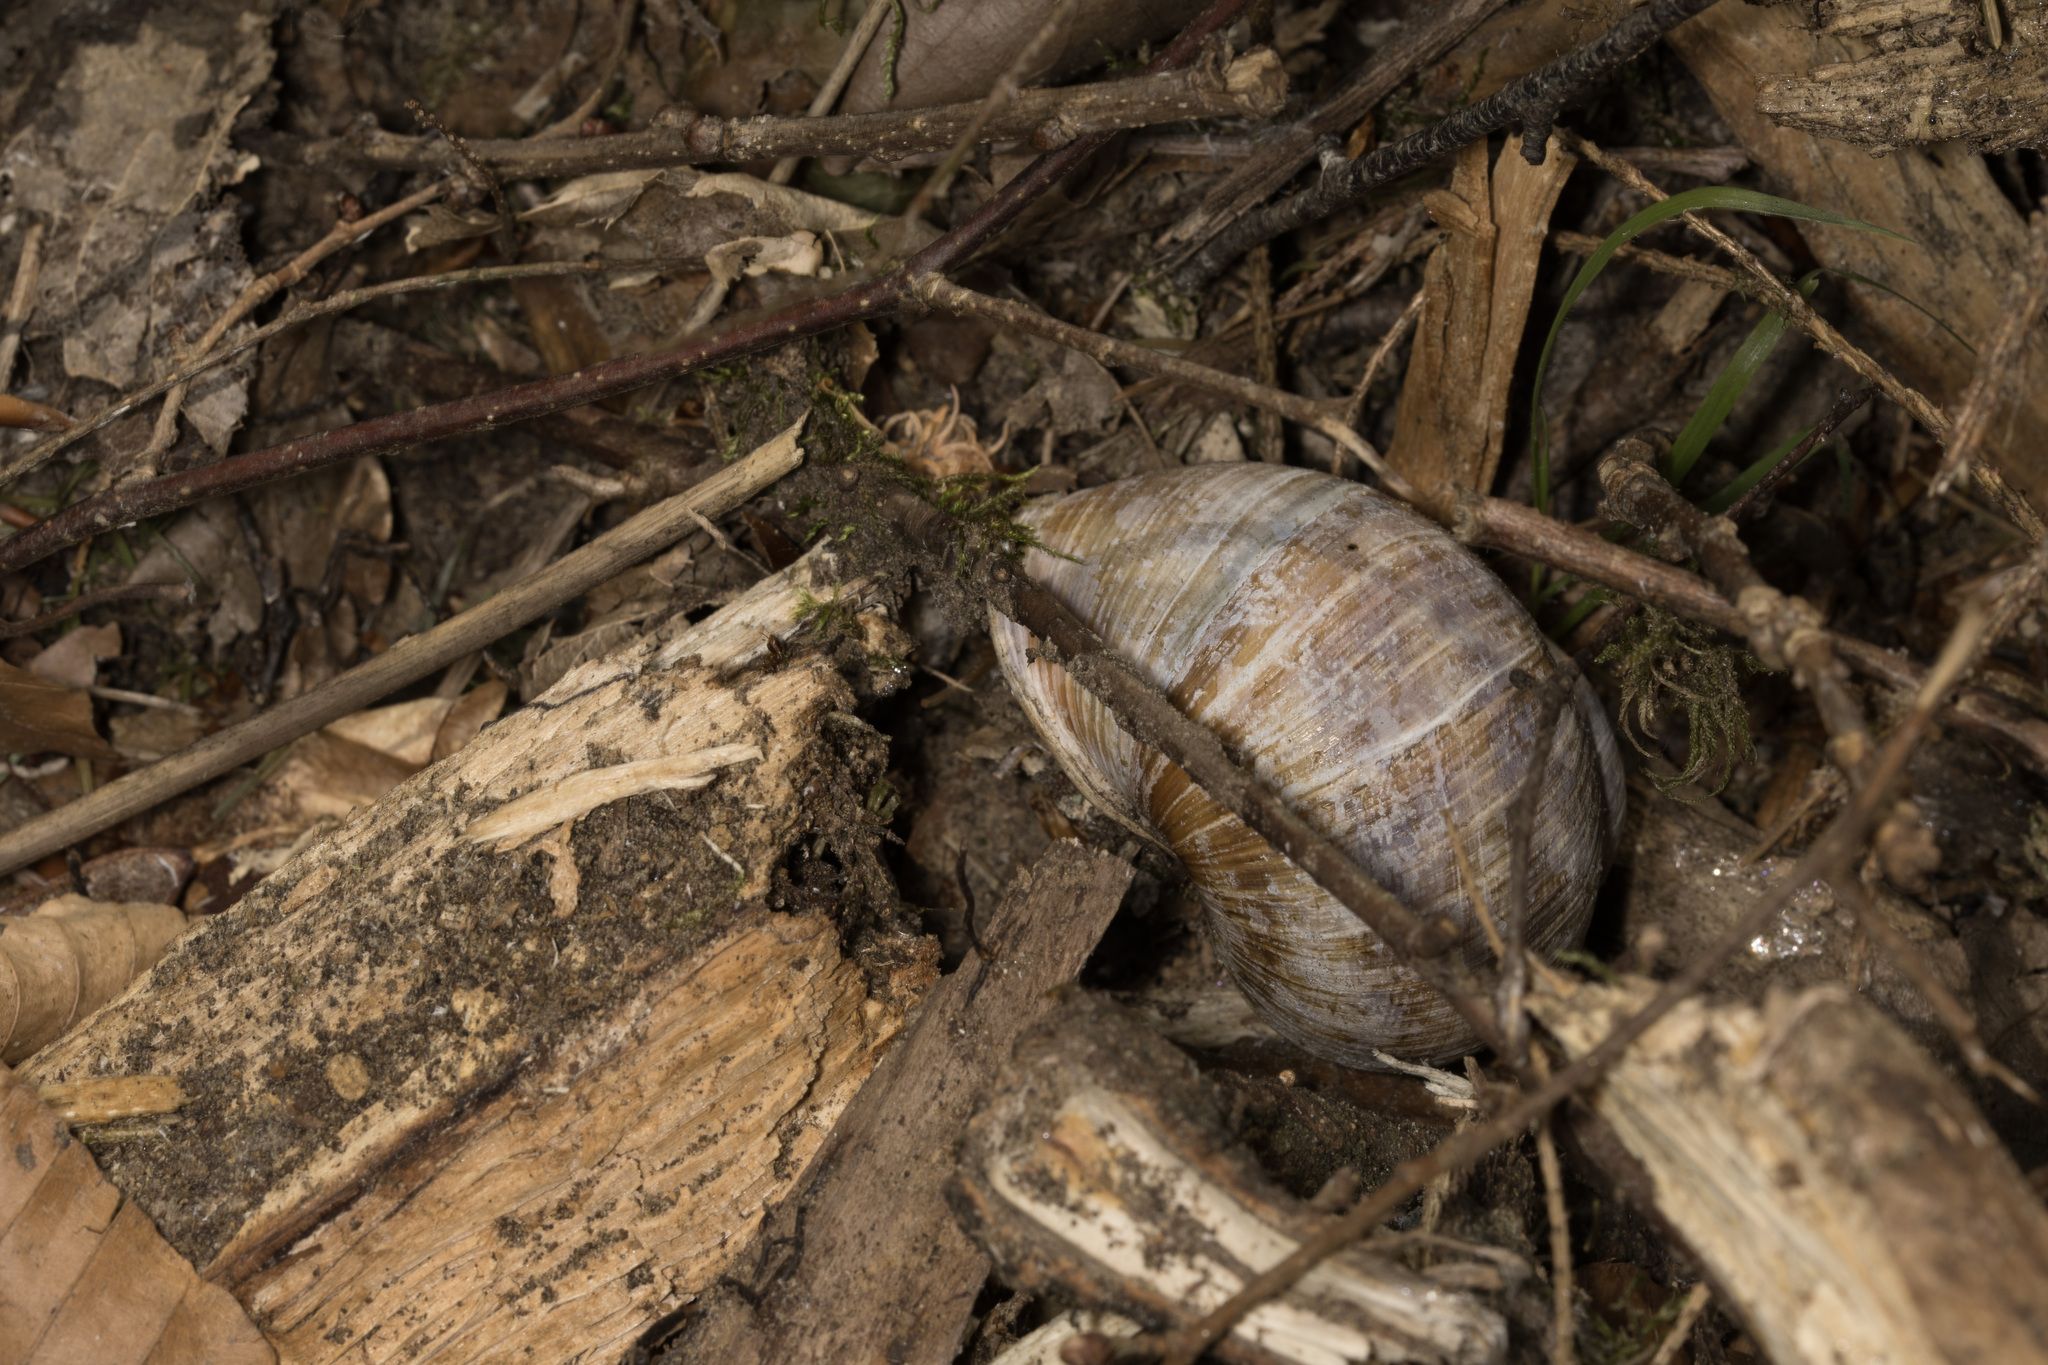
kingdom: Animalia
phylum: Mollusca
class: Gastropoda
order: Stylommatophora
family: Helicidae
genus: Helix
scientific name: Helix pomatia
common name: Roman snail
